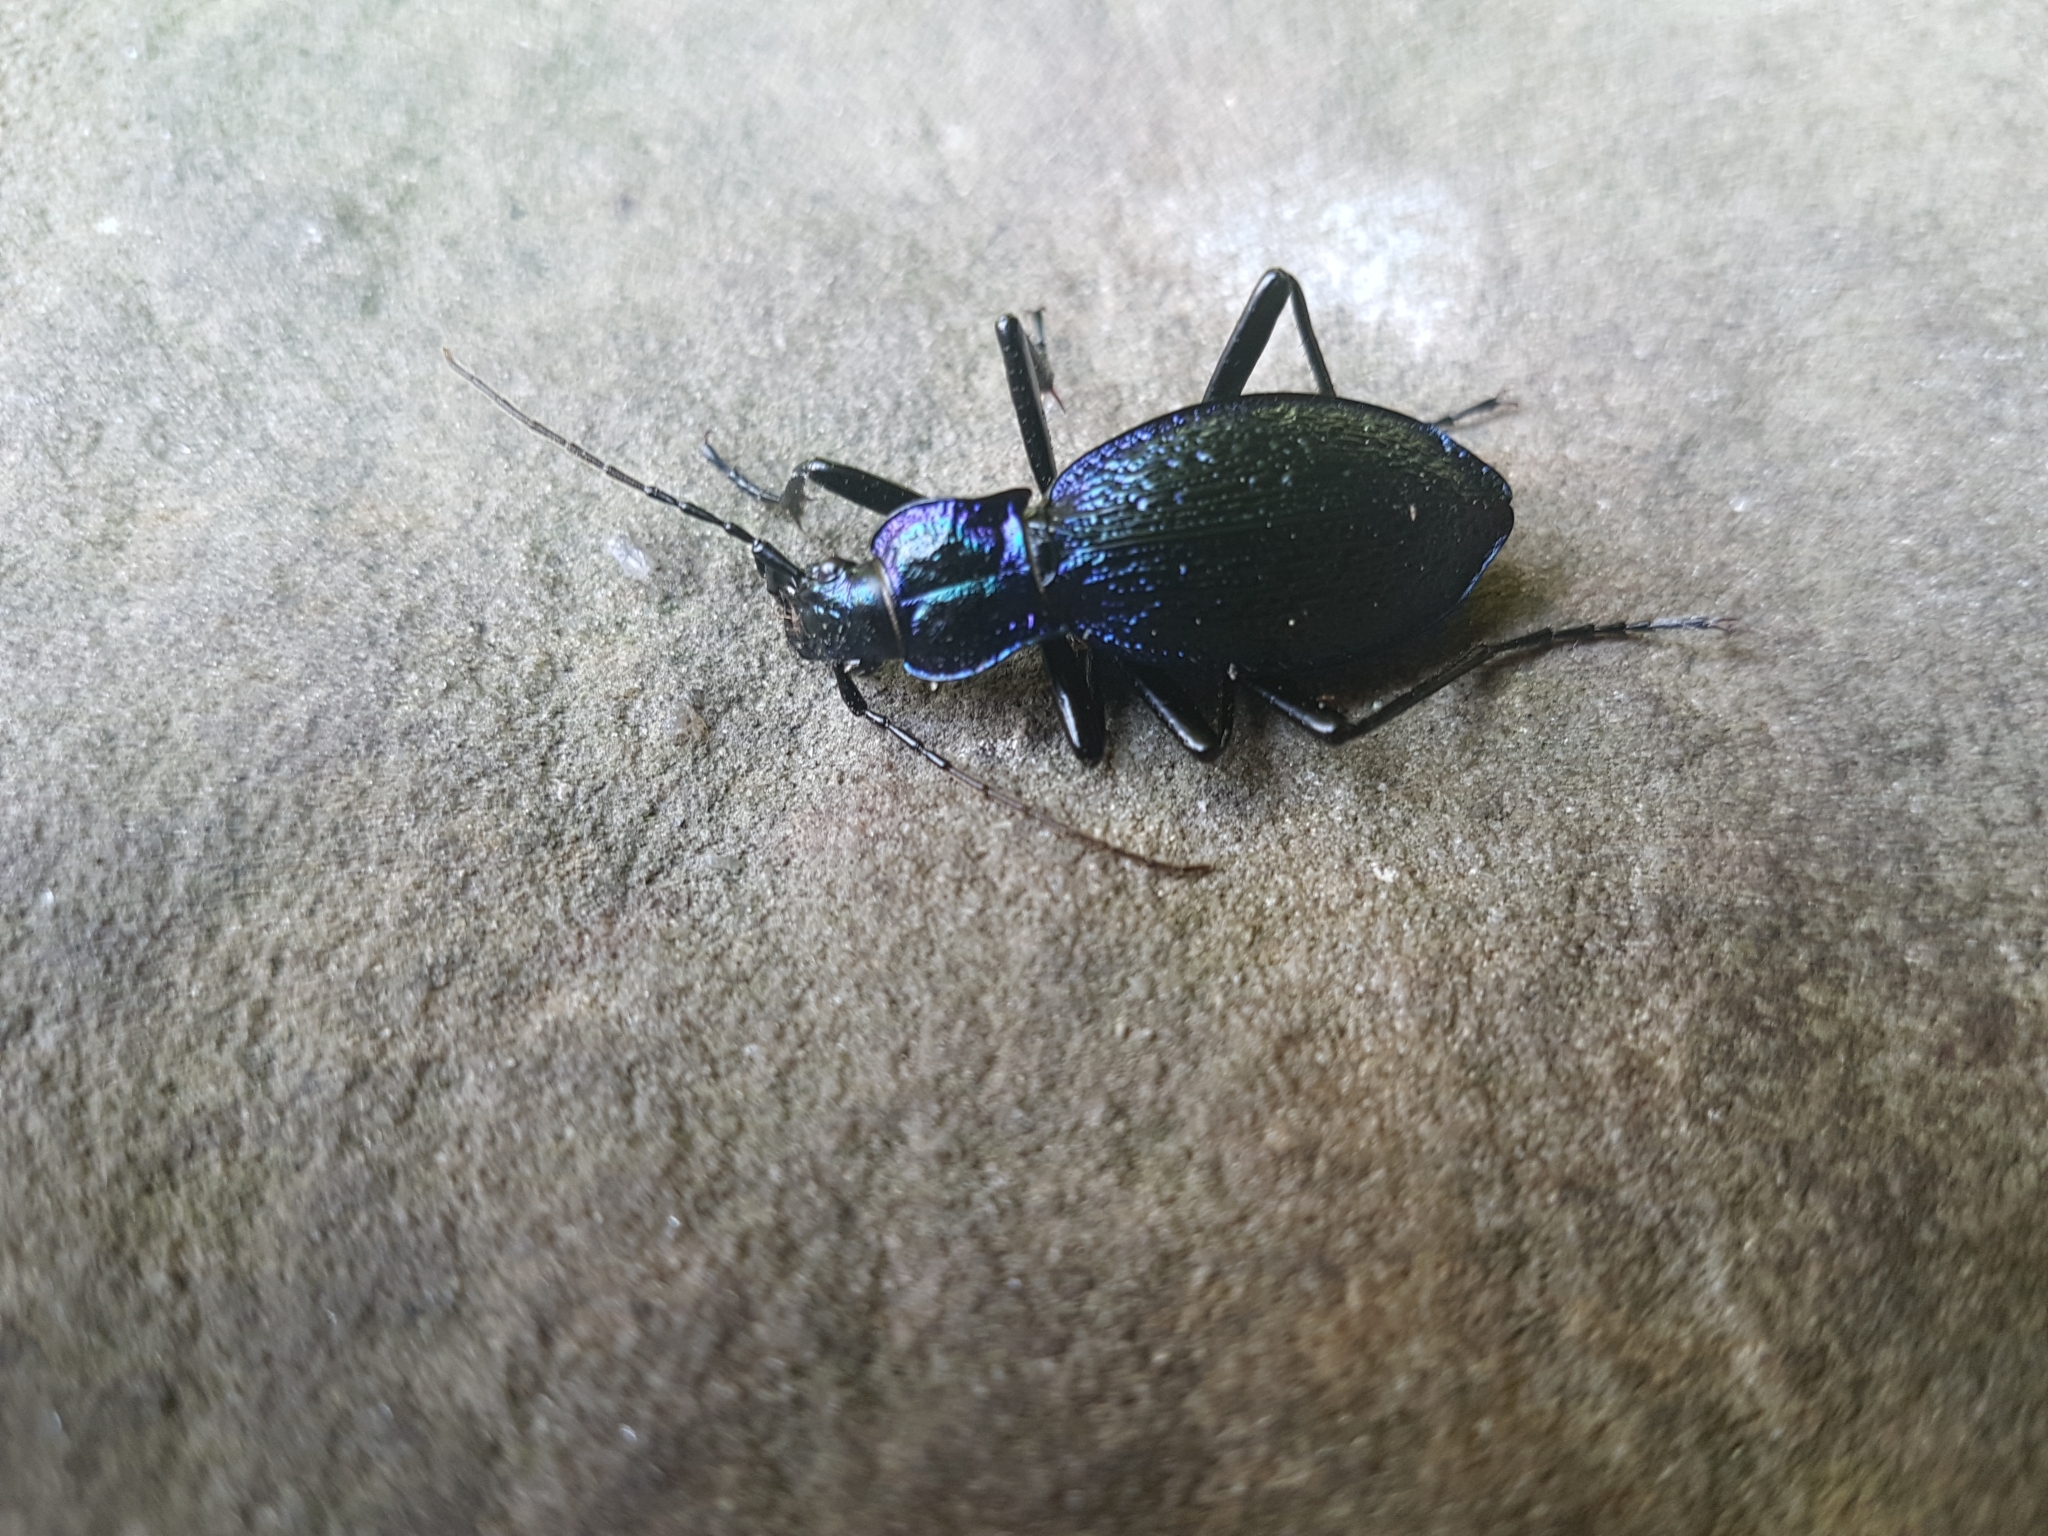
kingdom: Animalia
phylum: Arthropoda
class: Insecta
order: Coleoptera
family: Carabidae
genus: Carabus
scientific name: Carabus intricatus
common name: Blue ground beetle
